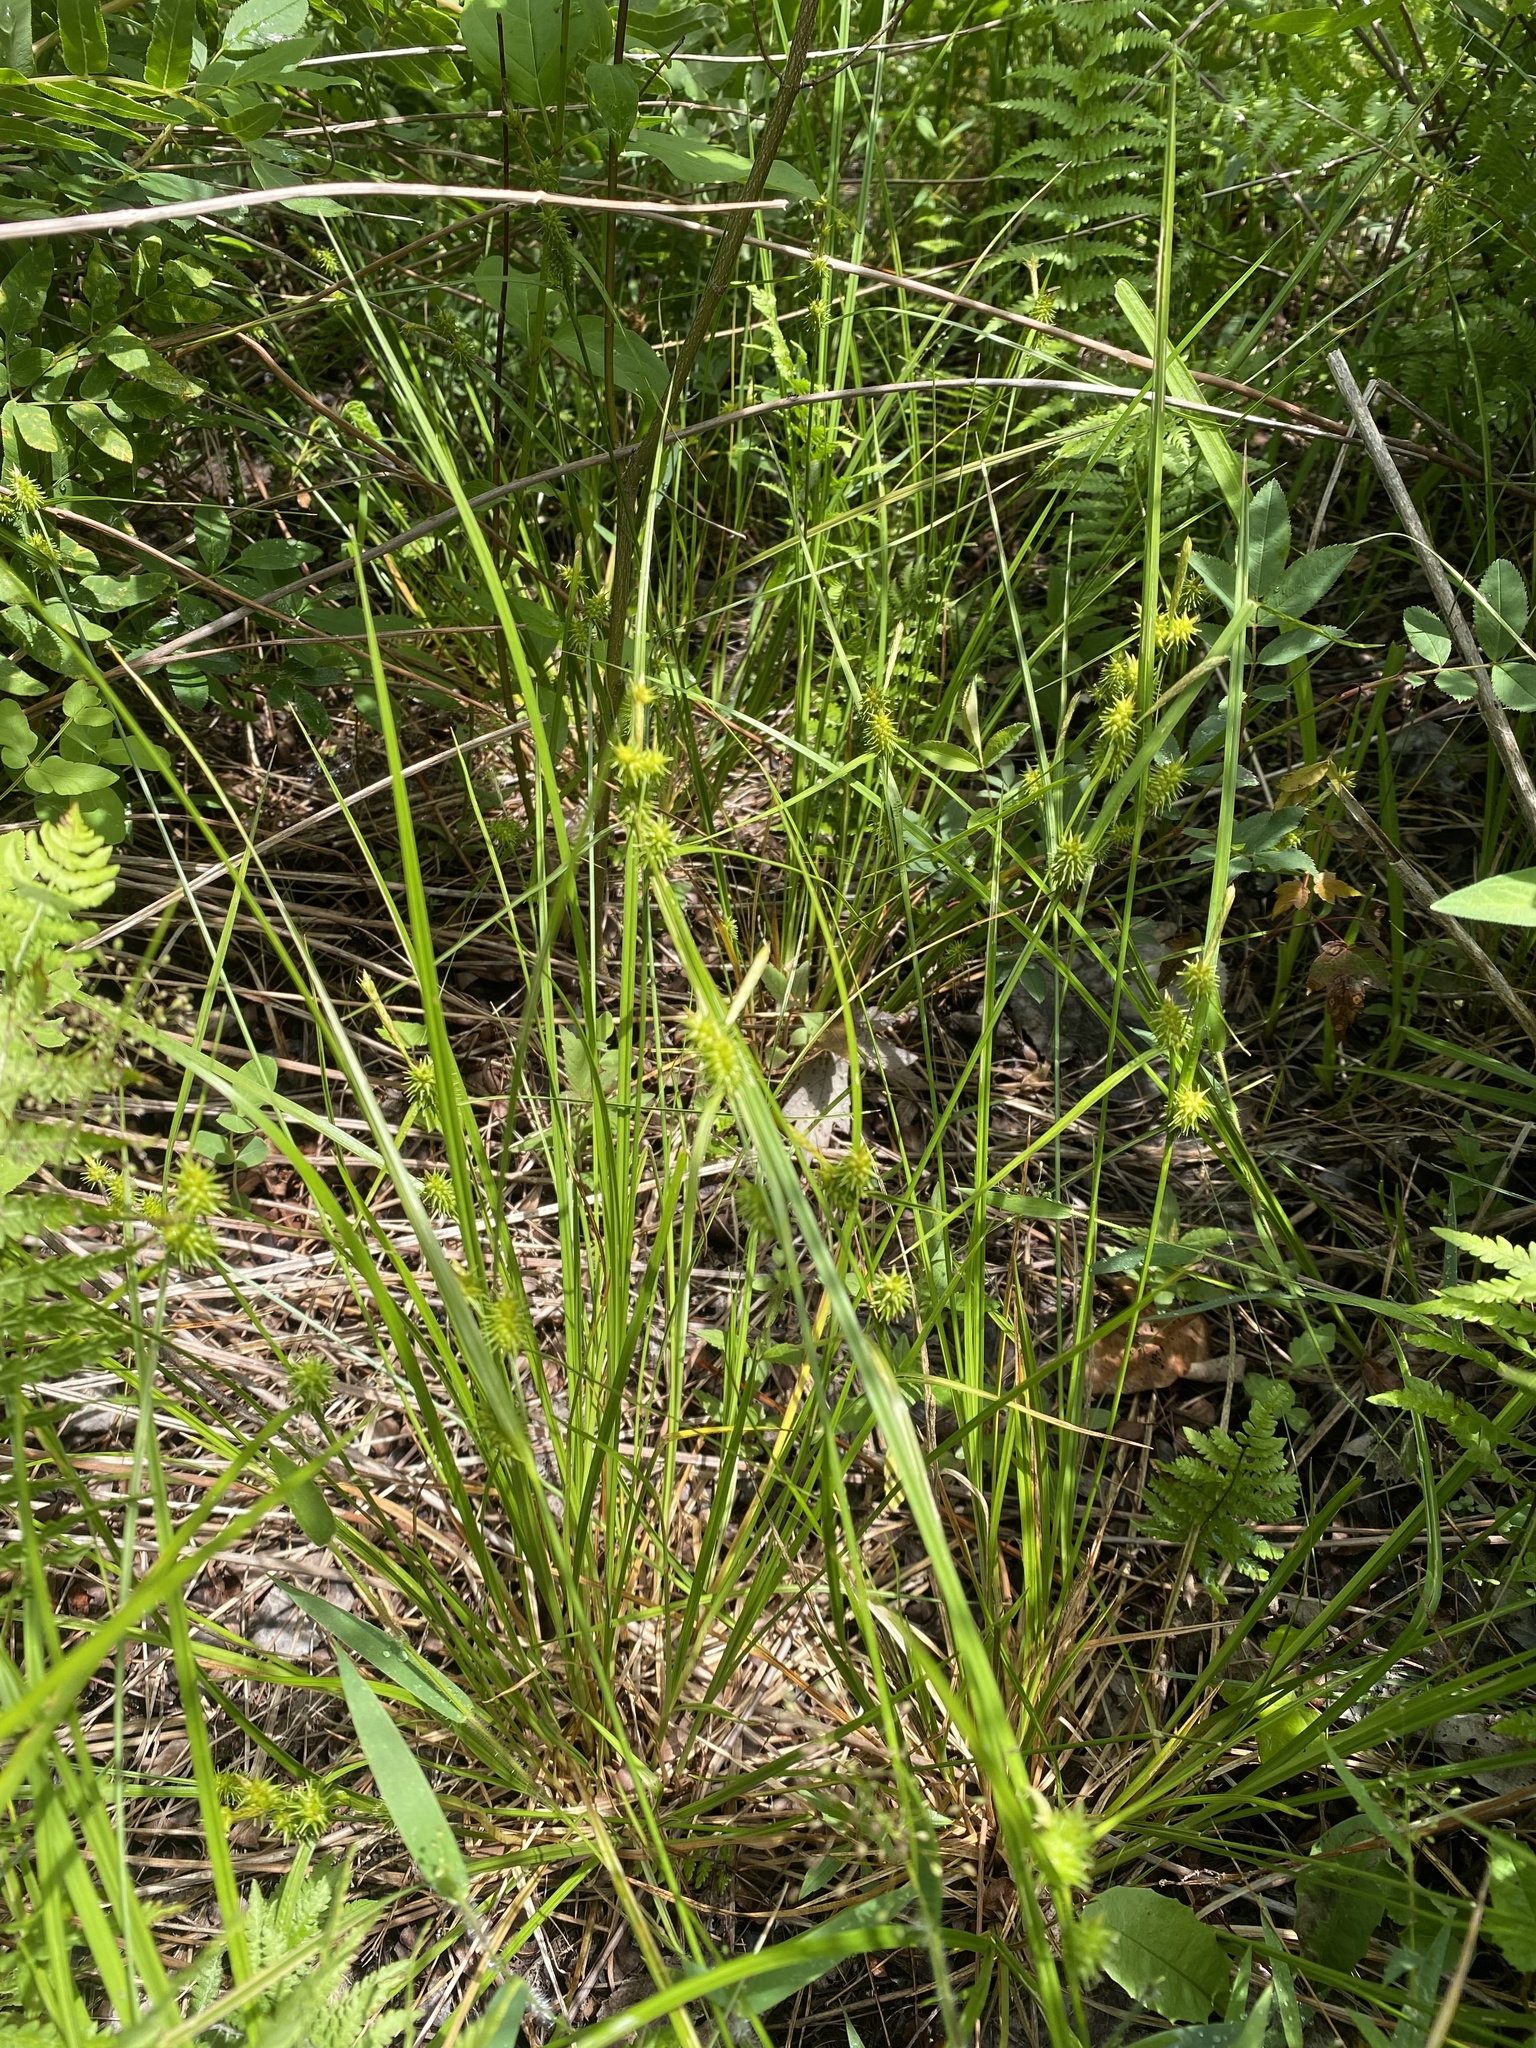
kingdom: Plantae
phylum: Tracheophyta
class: Liliopsida
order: Poales
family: Cyperaceae
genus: Carex
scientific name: Carex flava
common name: Large yellow-sedge
